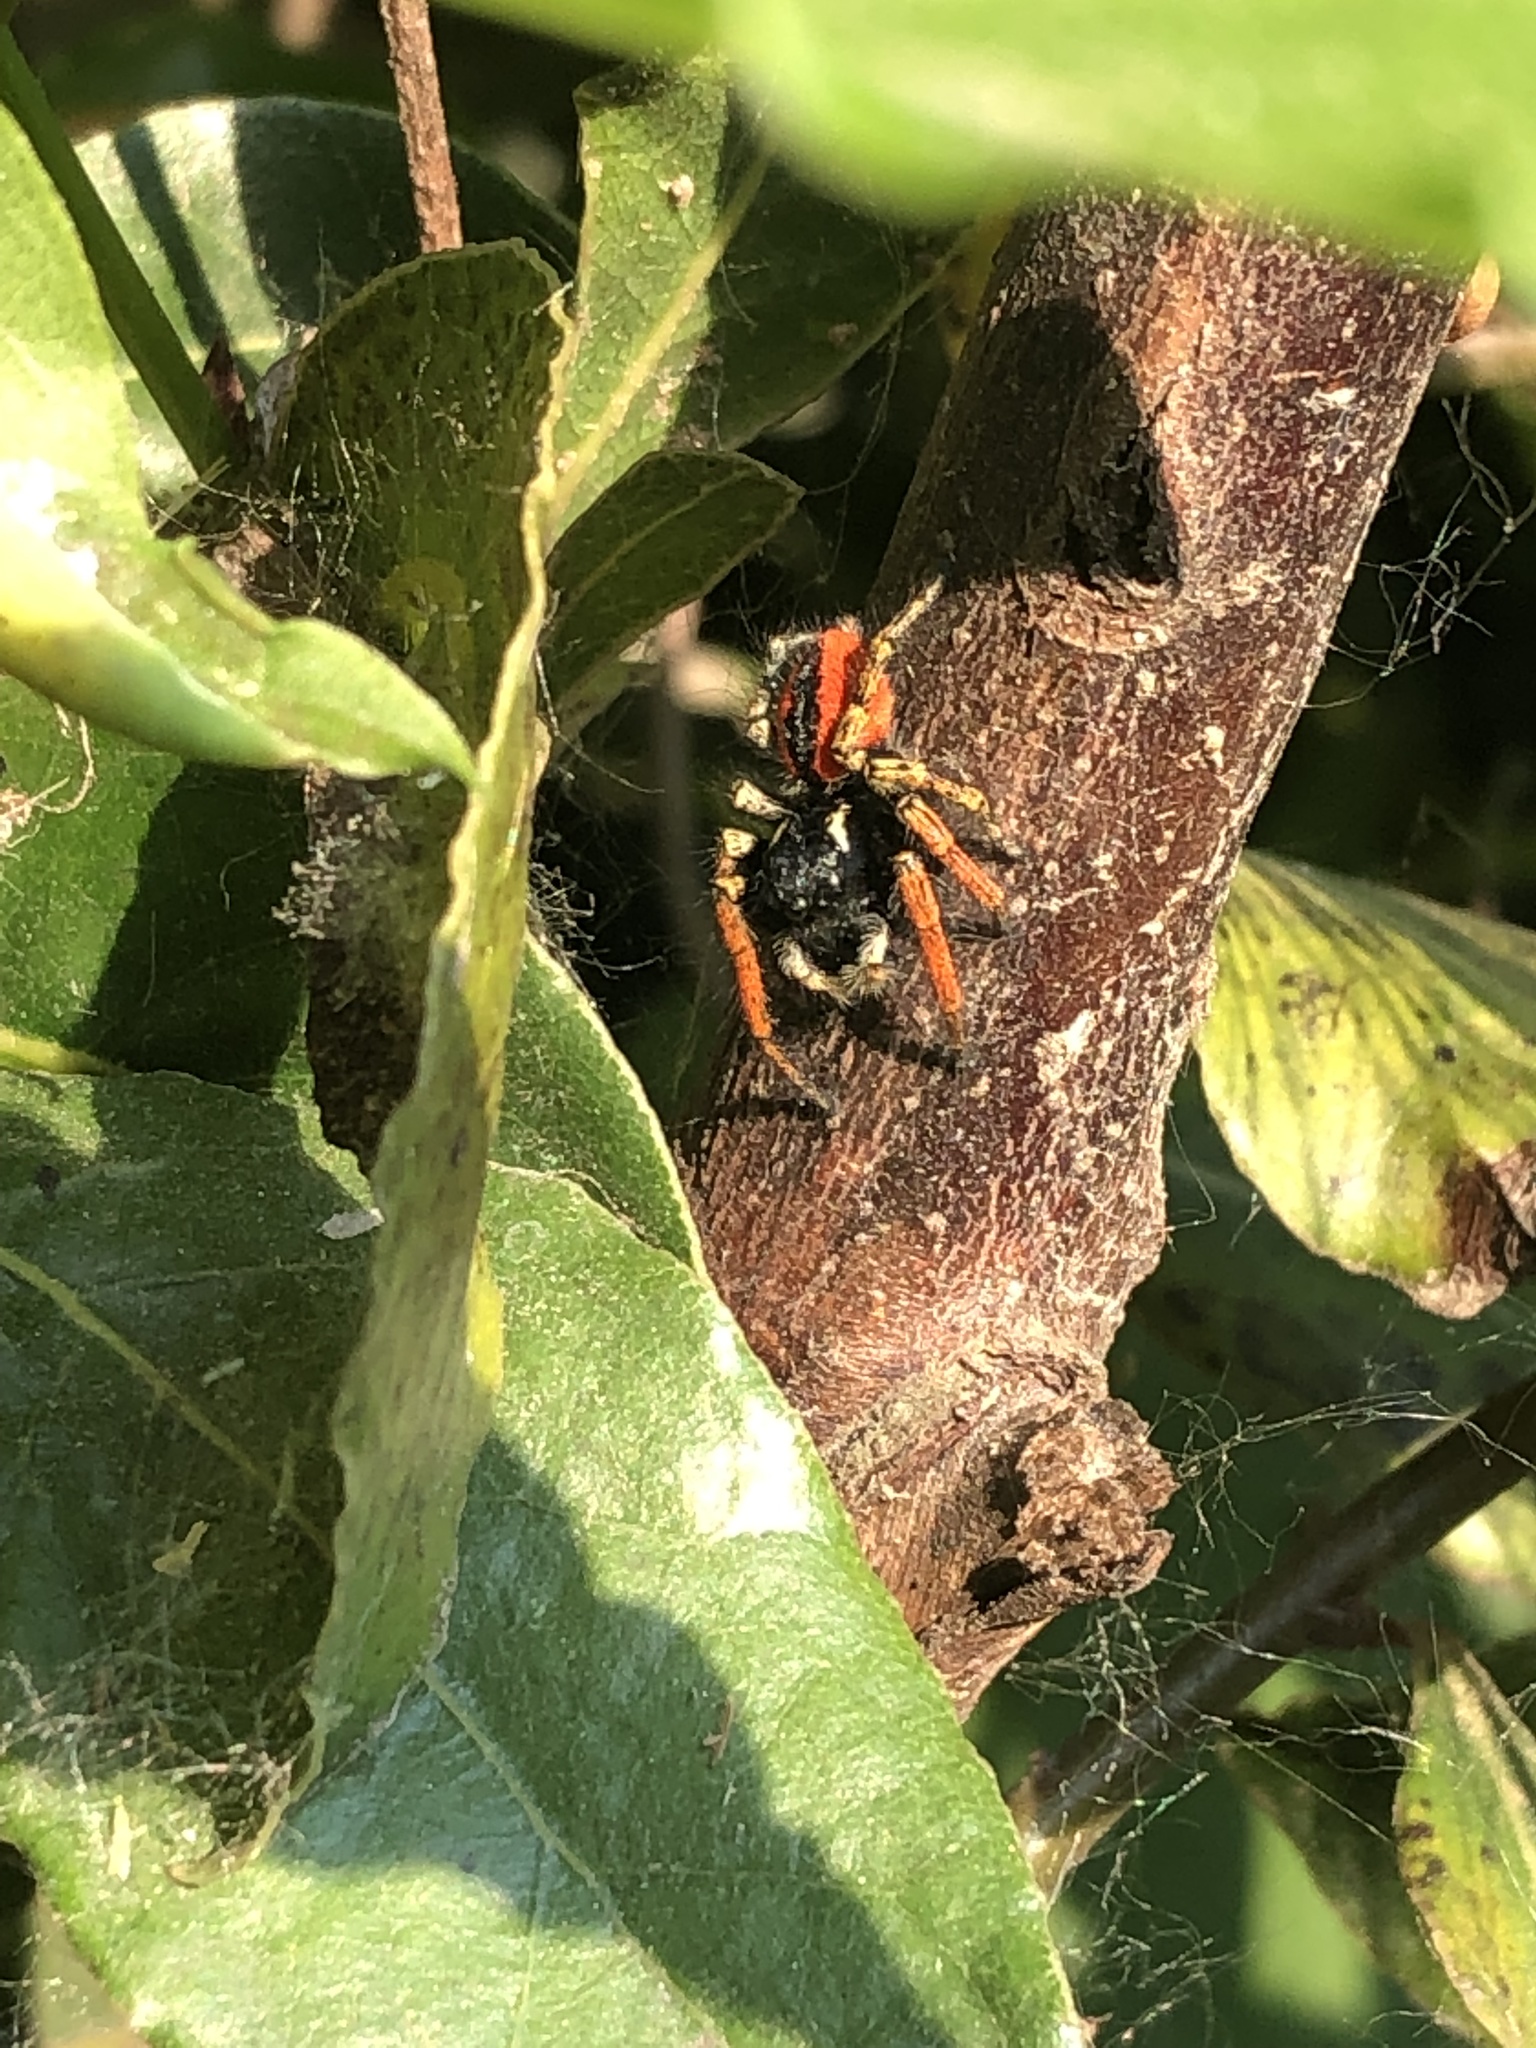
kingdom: Animalia
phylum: Arthropoda
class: Arachnida
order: Araneae
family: Salticidae
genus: Philaeus
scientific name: Philaeus chrysops
